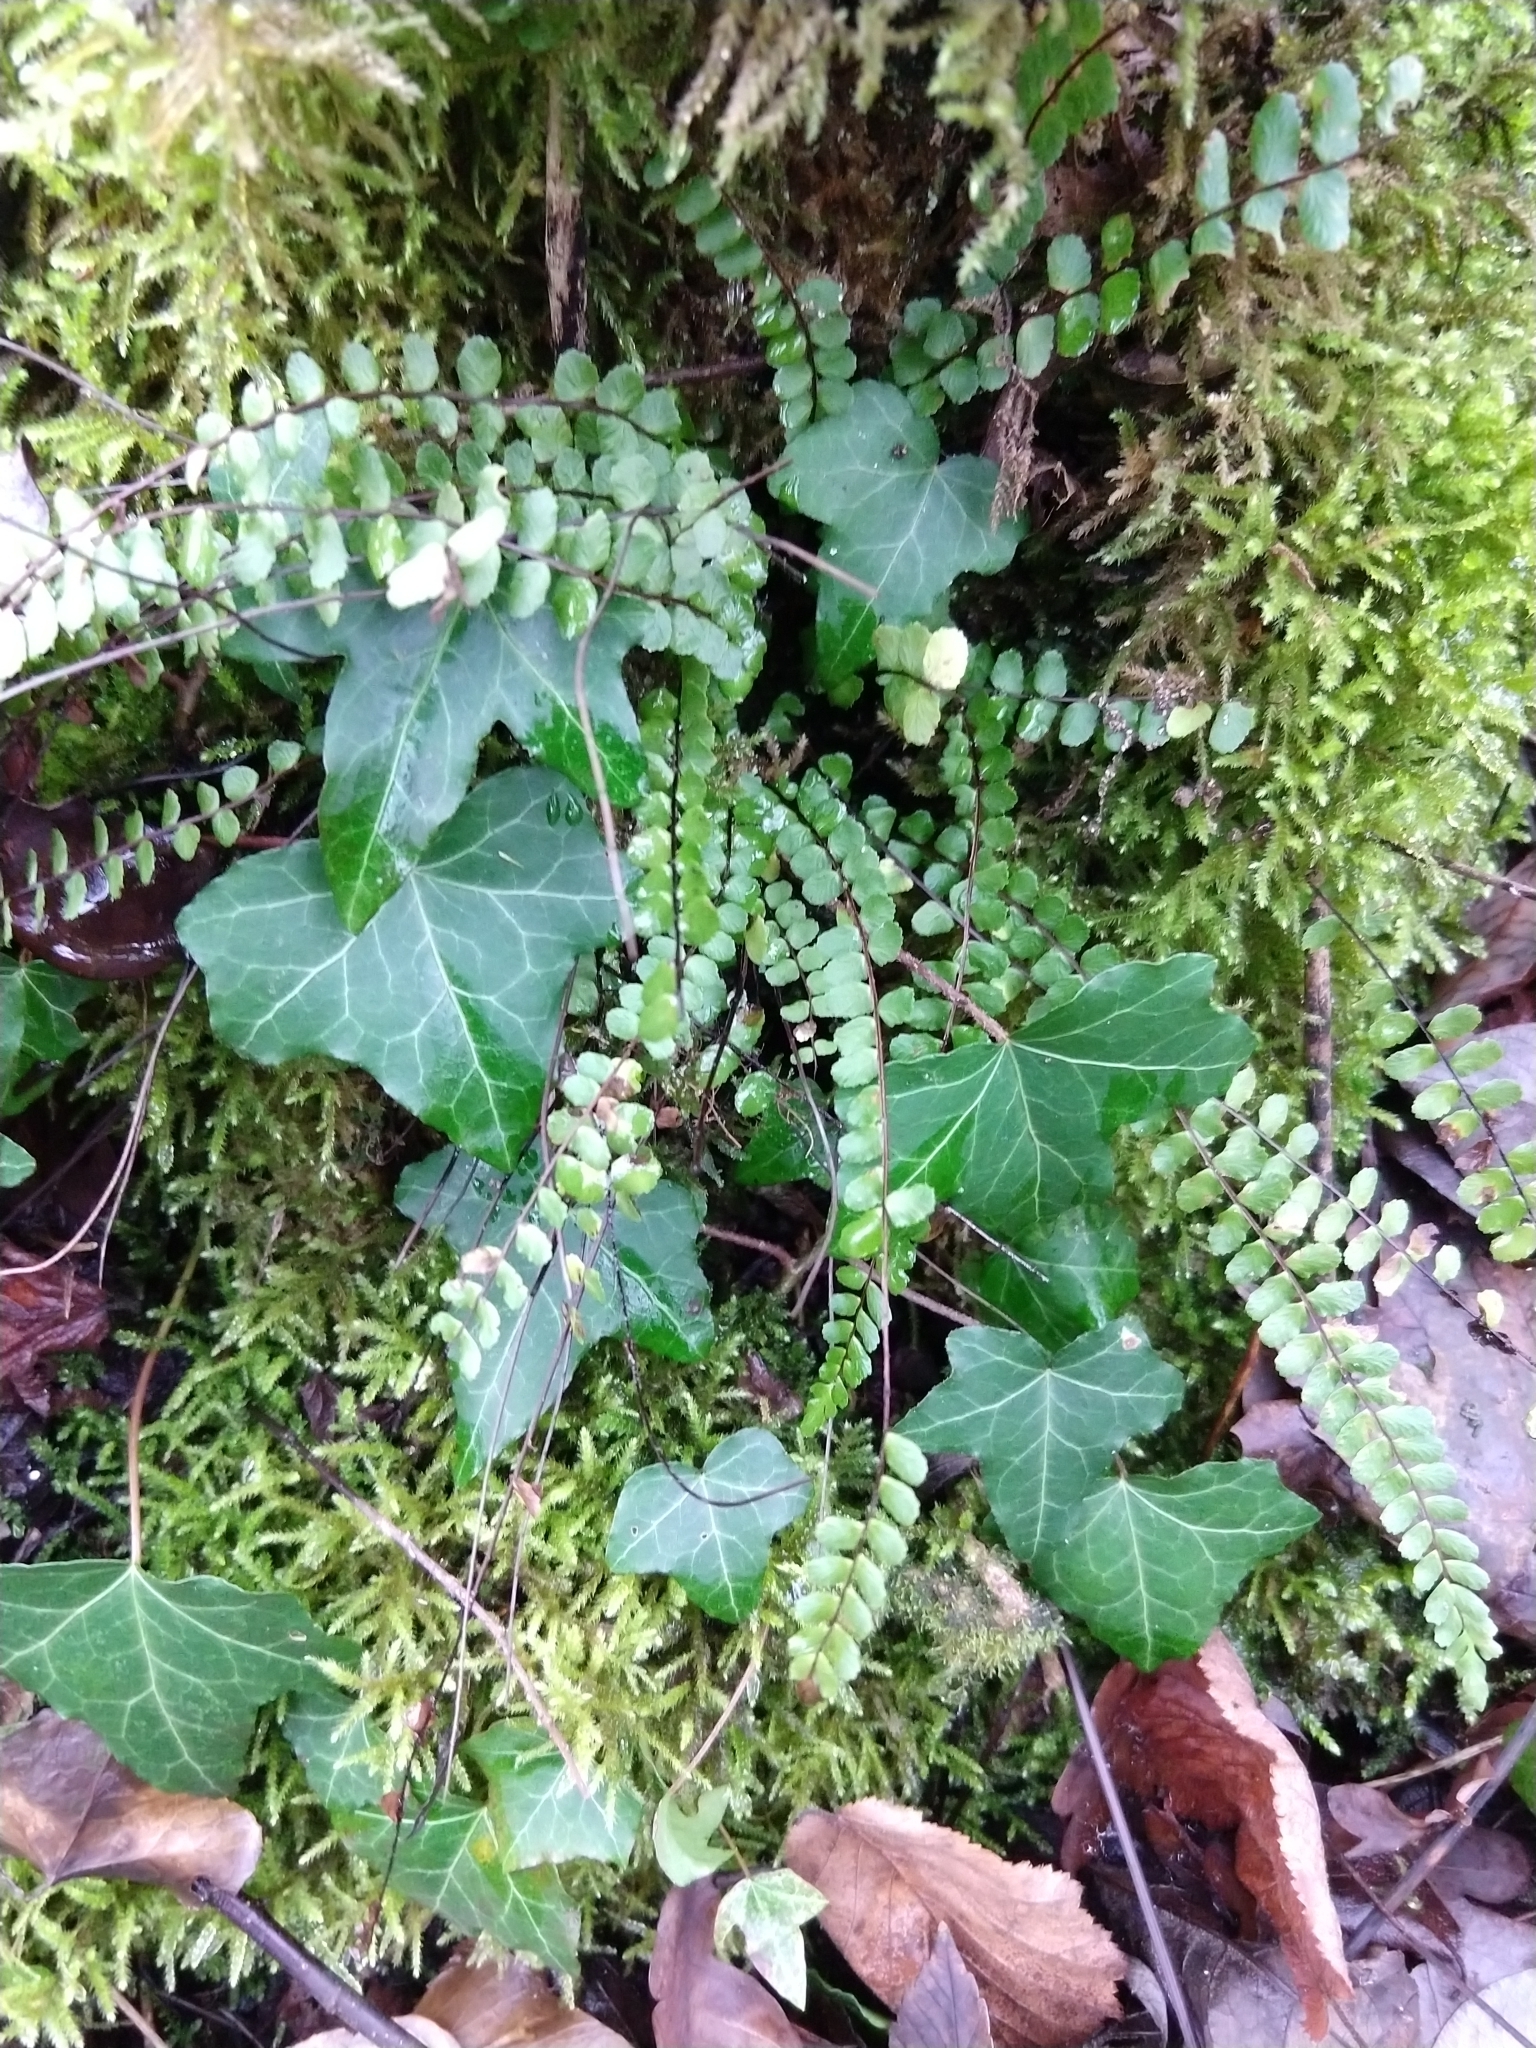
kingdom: Plantae
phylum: Tracheophyta
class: Polypodiopsida
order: Polypodiales
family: Aspleniaceae
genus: Asplenium
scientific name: Asplenium trichomanes
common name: Maidenhair spleenwort
